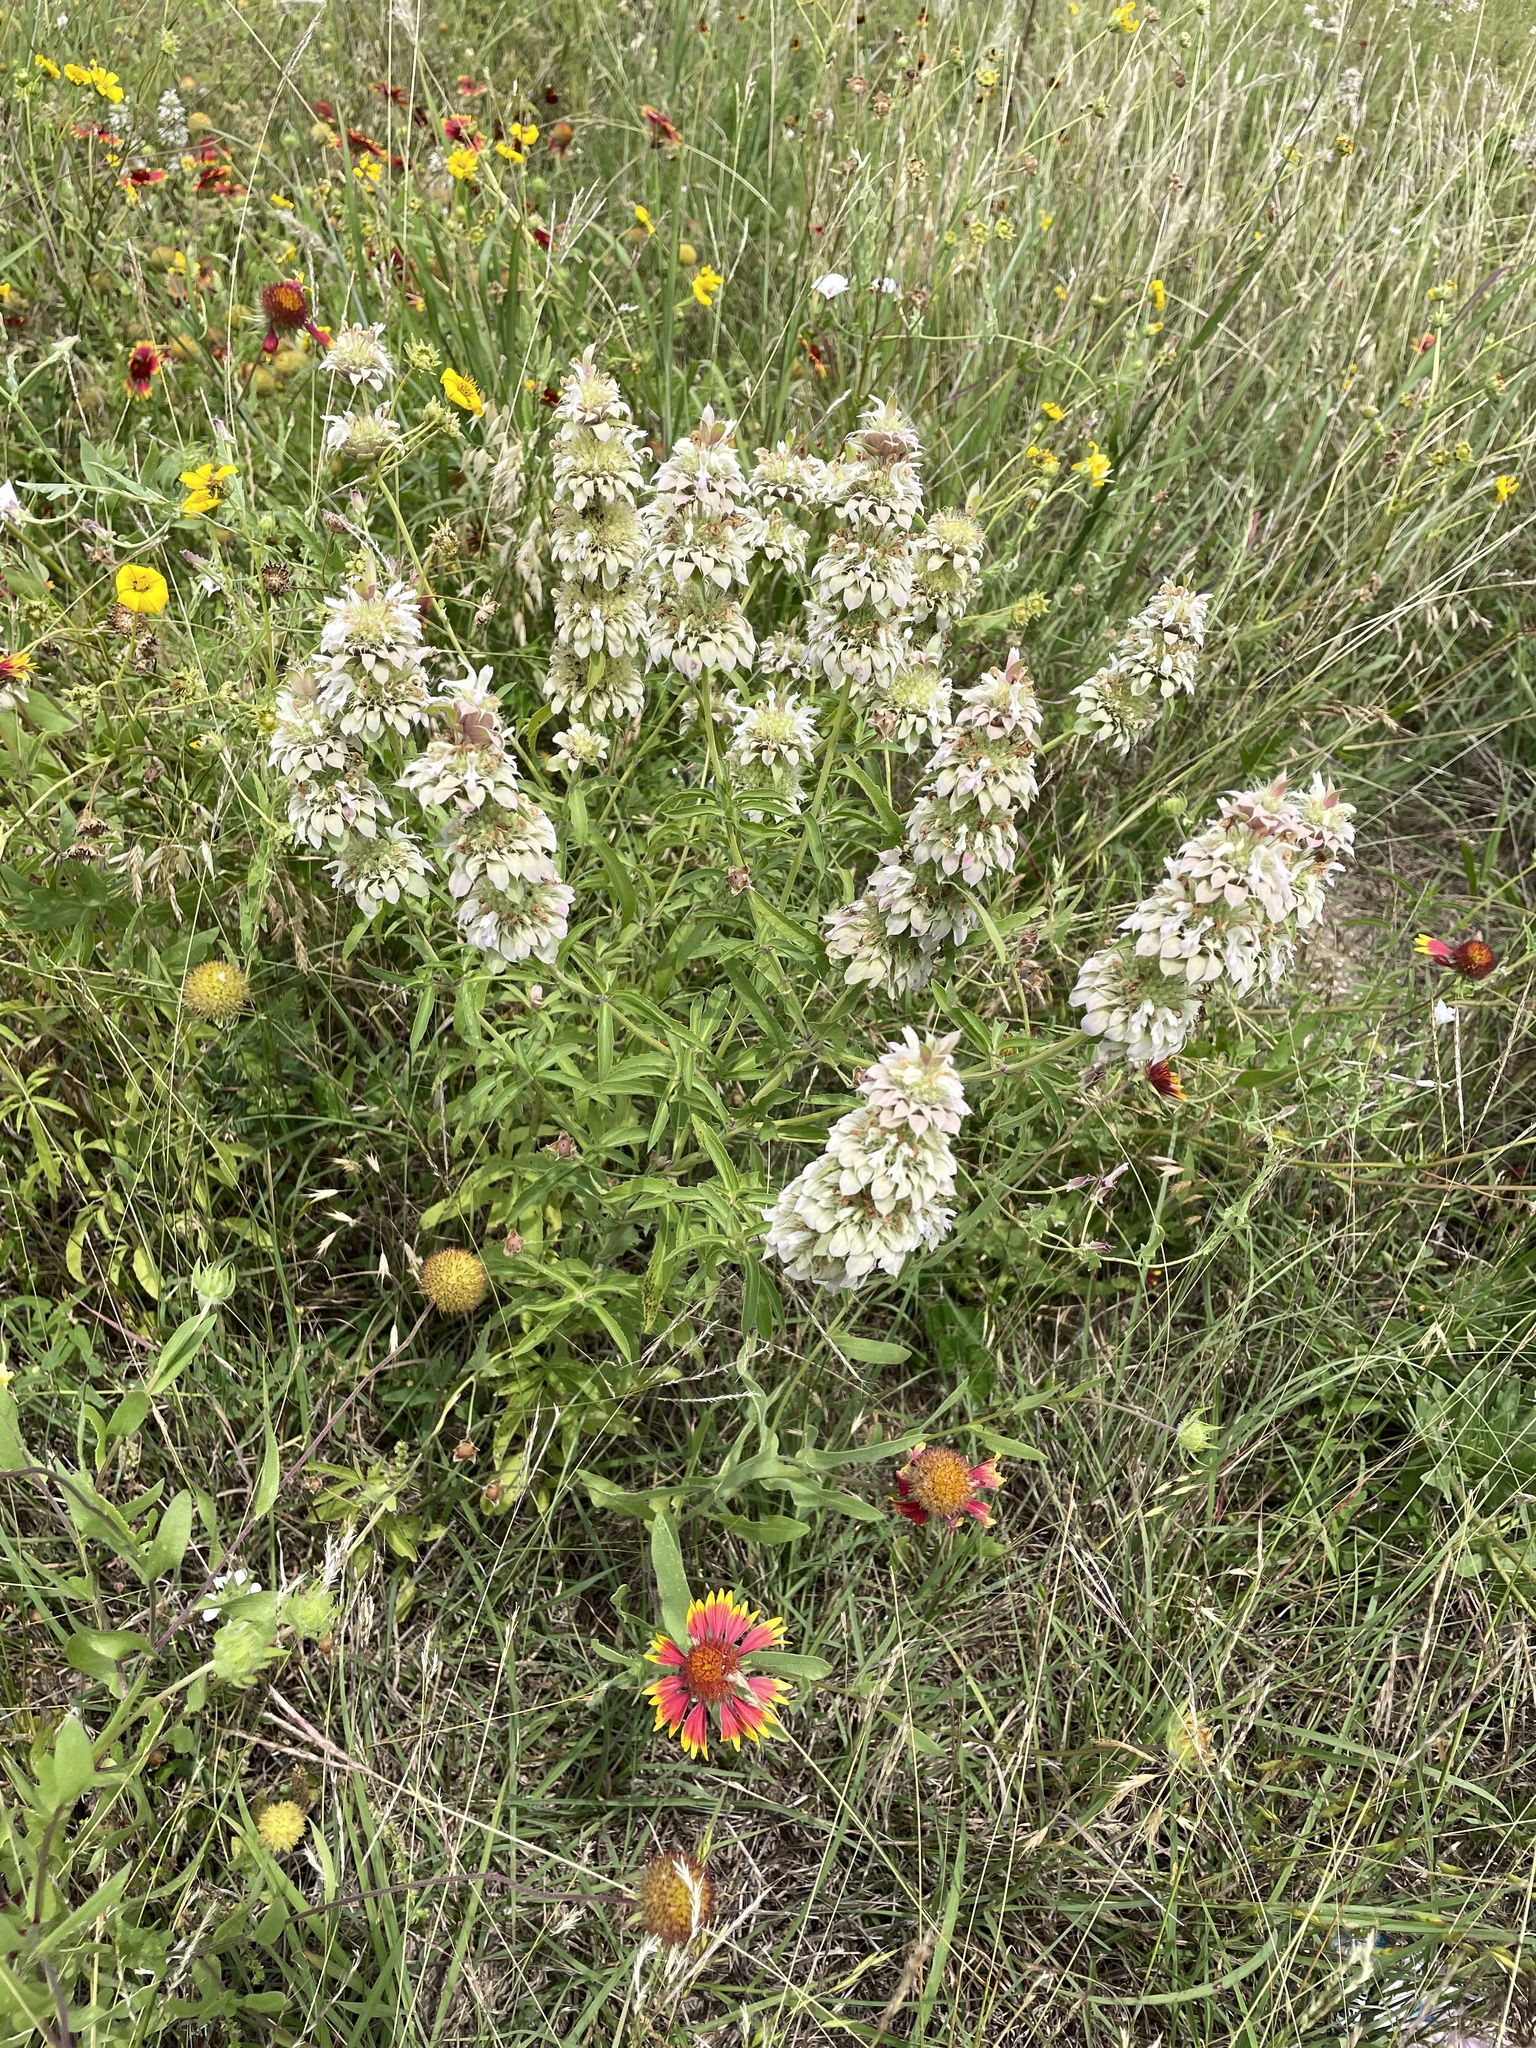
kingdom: Plantae
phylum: Tracheophyta
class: Magnoliopsida
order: Lamiales
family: Lamiaceae
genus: Monarda
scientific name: Monarda citriodora
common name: Lemon beebalm
